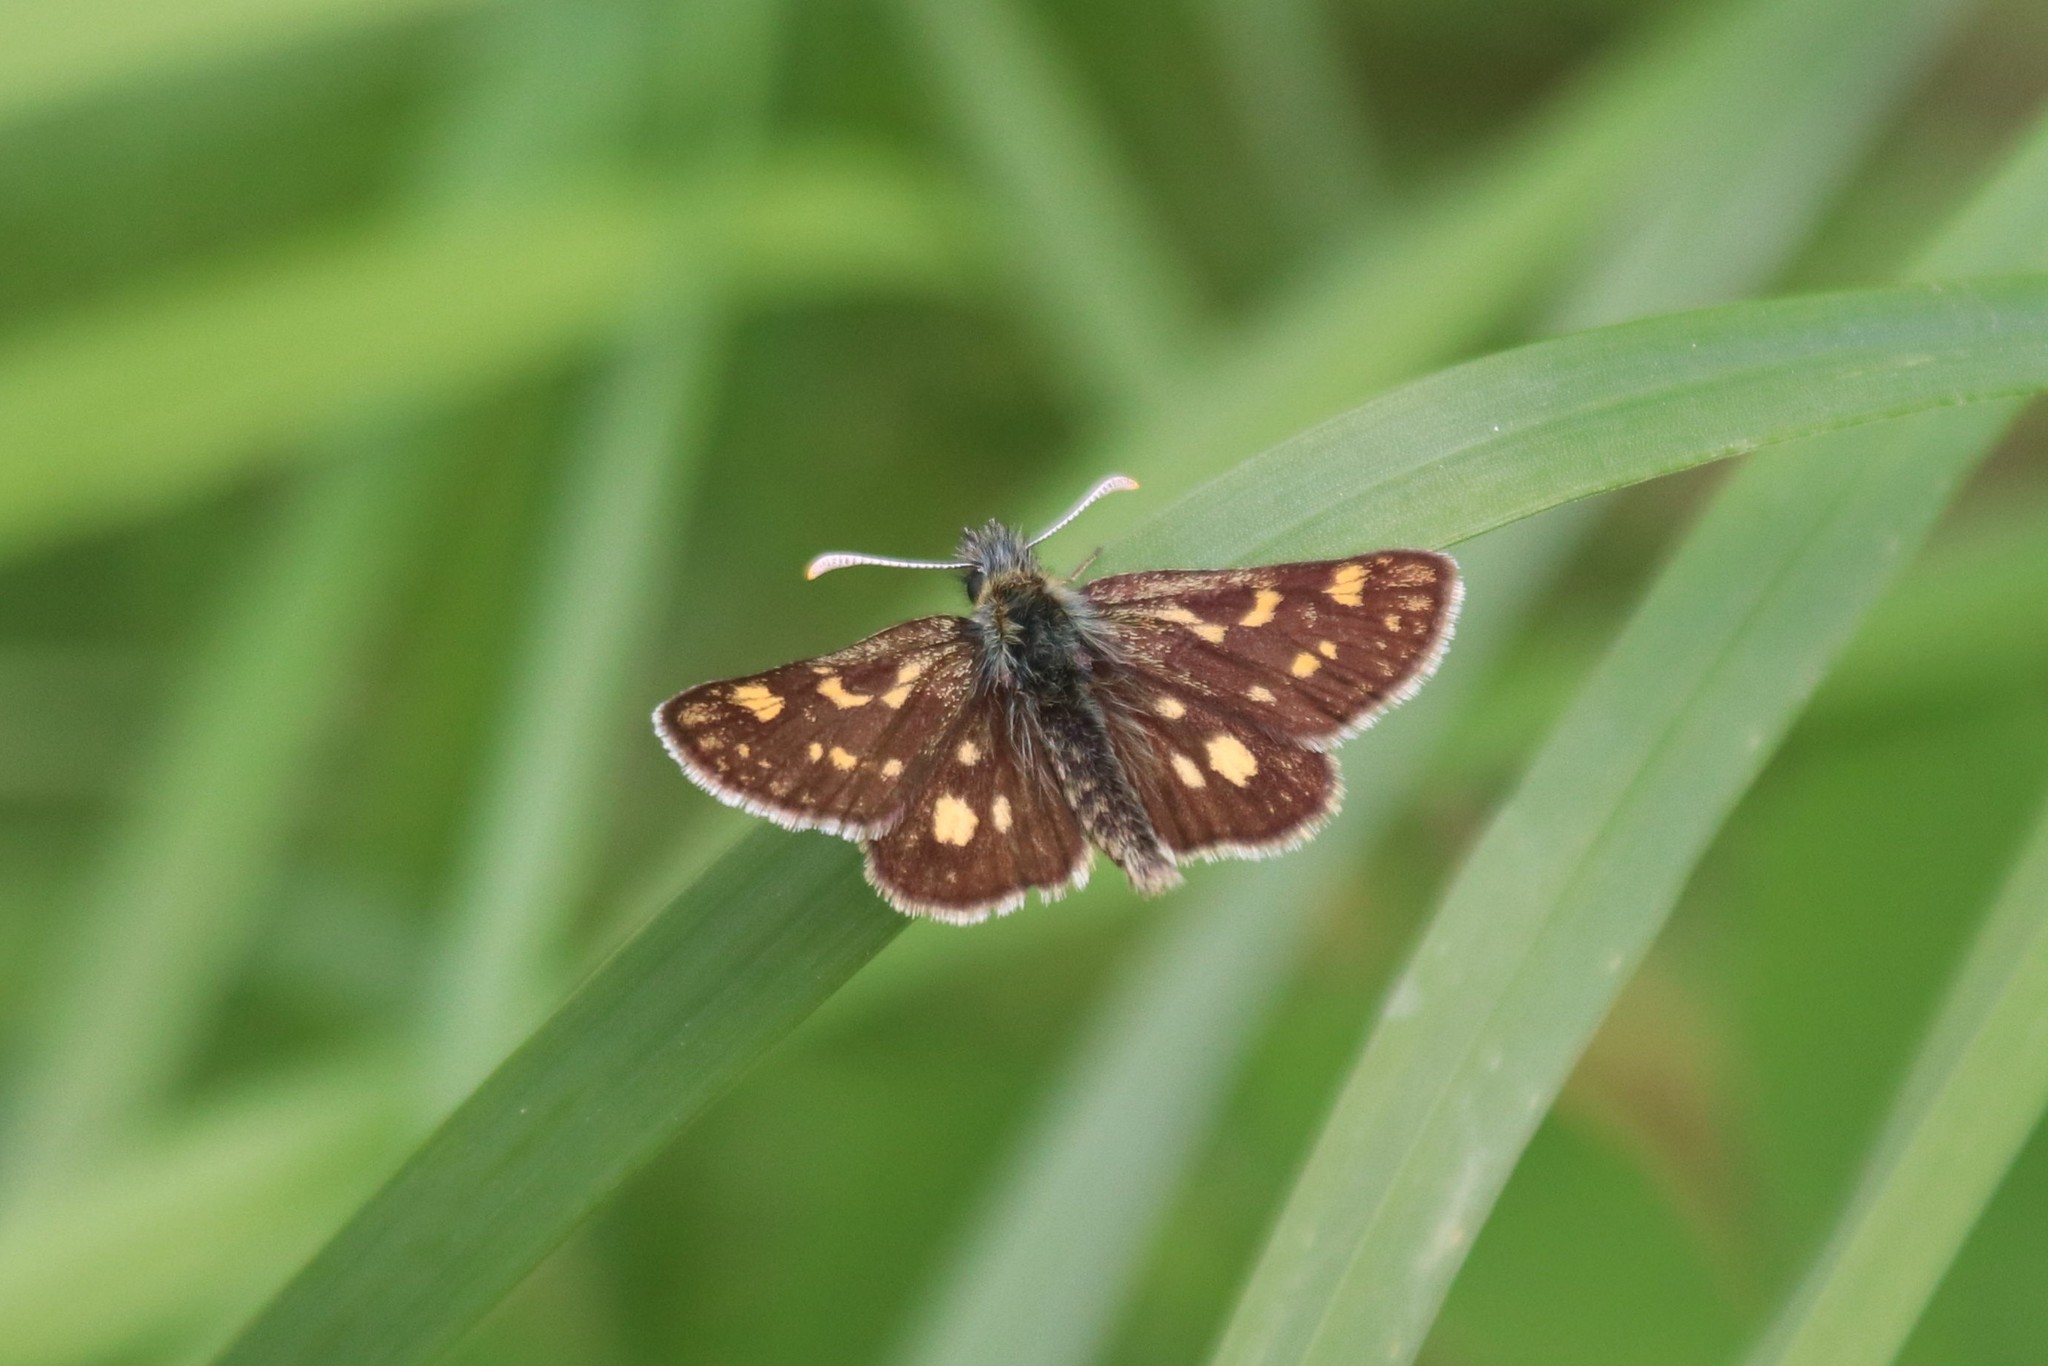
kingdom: Animalia
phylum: Arthropoda
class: Insecta
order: Lepidoptera
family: Hesperiidae
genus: Carterocephalus
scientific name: Carterocephalus palaemon
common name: Chequered skipper
